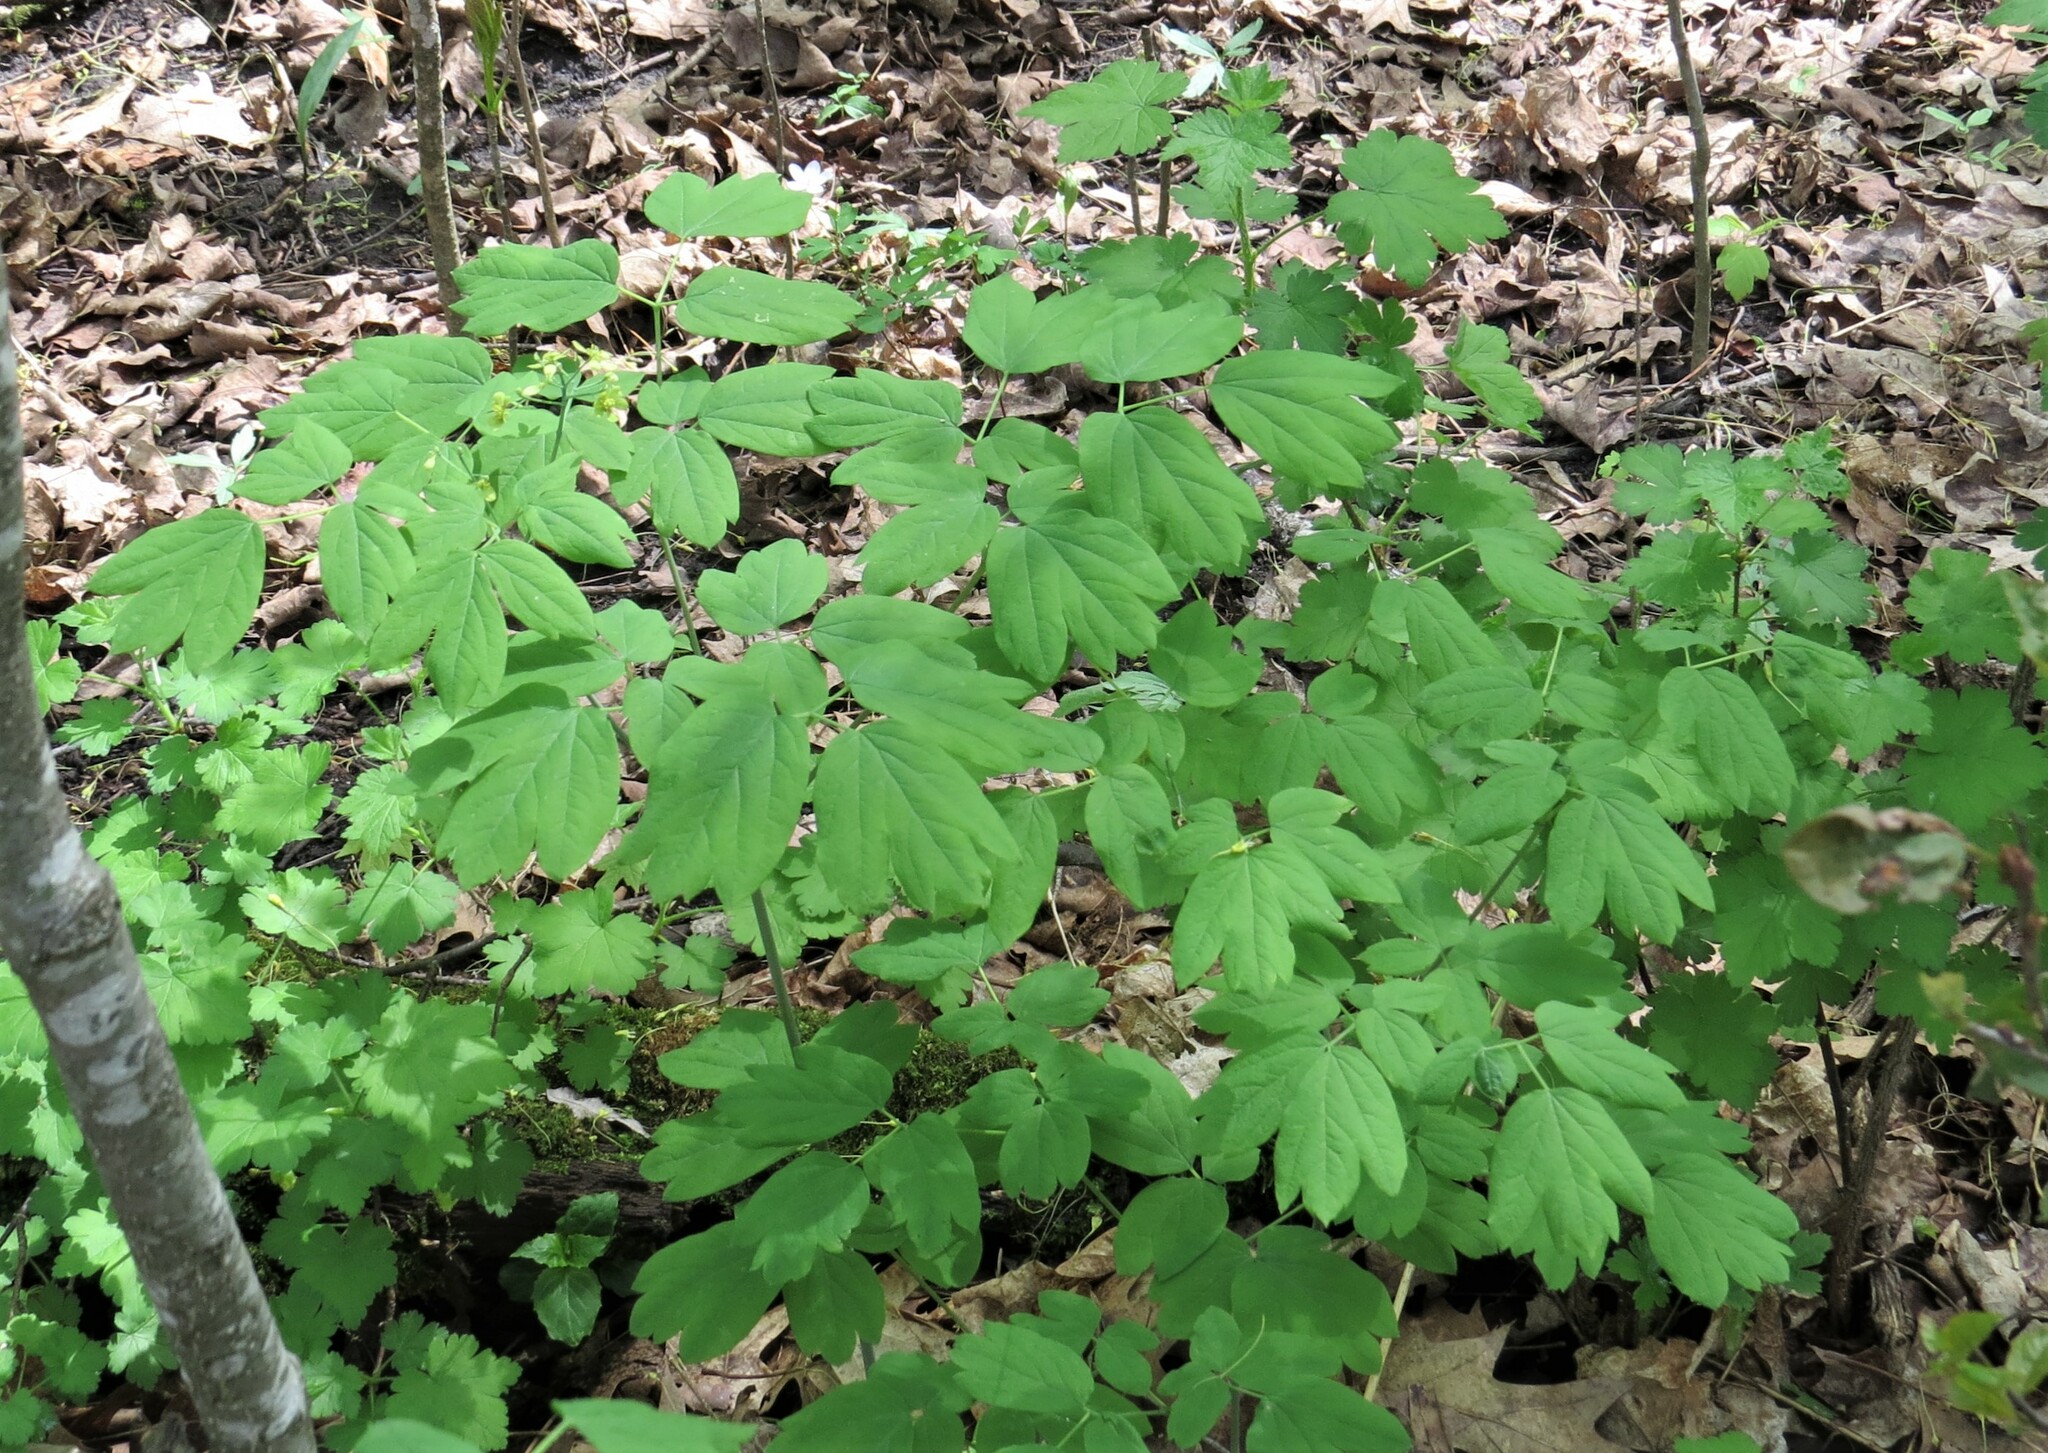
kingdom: Plantae
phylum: Tracheophyta
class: Magnoliopsida
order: Ranunculales
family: Berberidaceae
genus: Caulophyllum
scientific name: Caulophyllum thalictroides
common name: Blue cohosh
